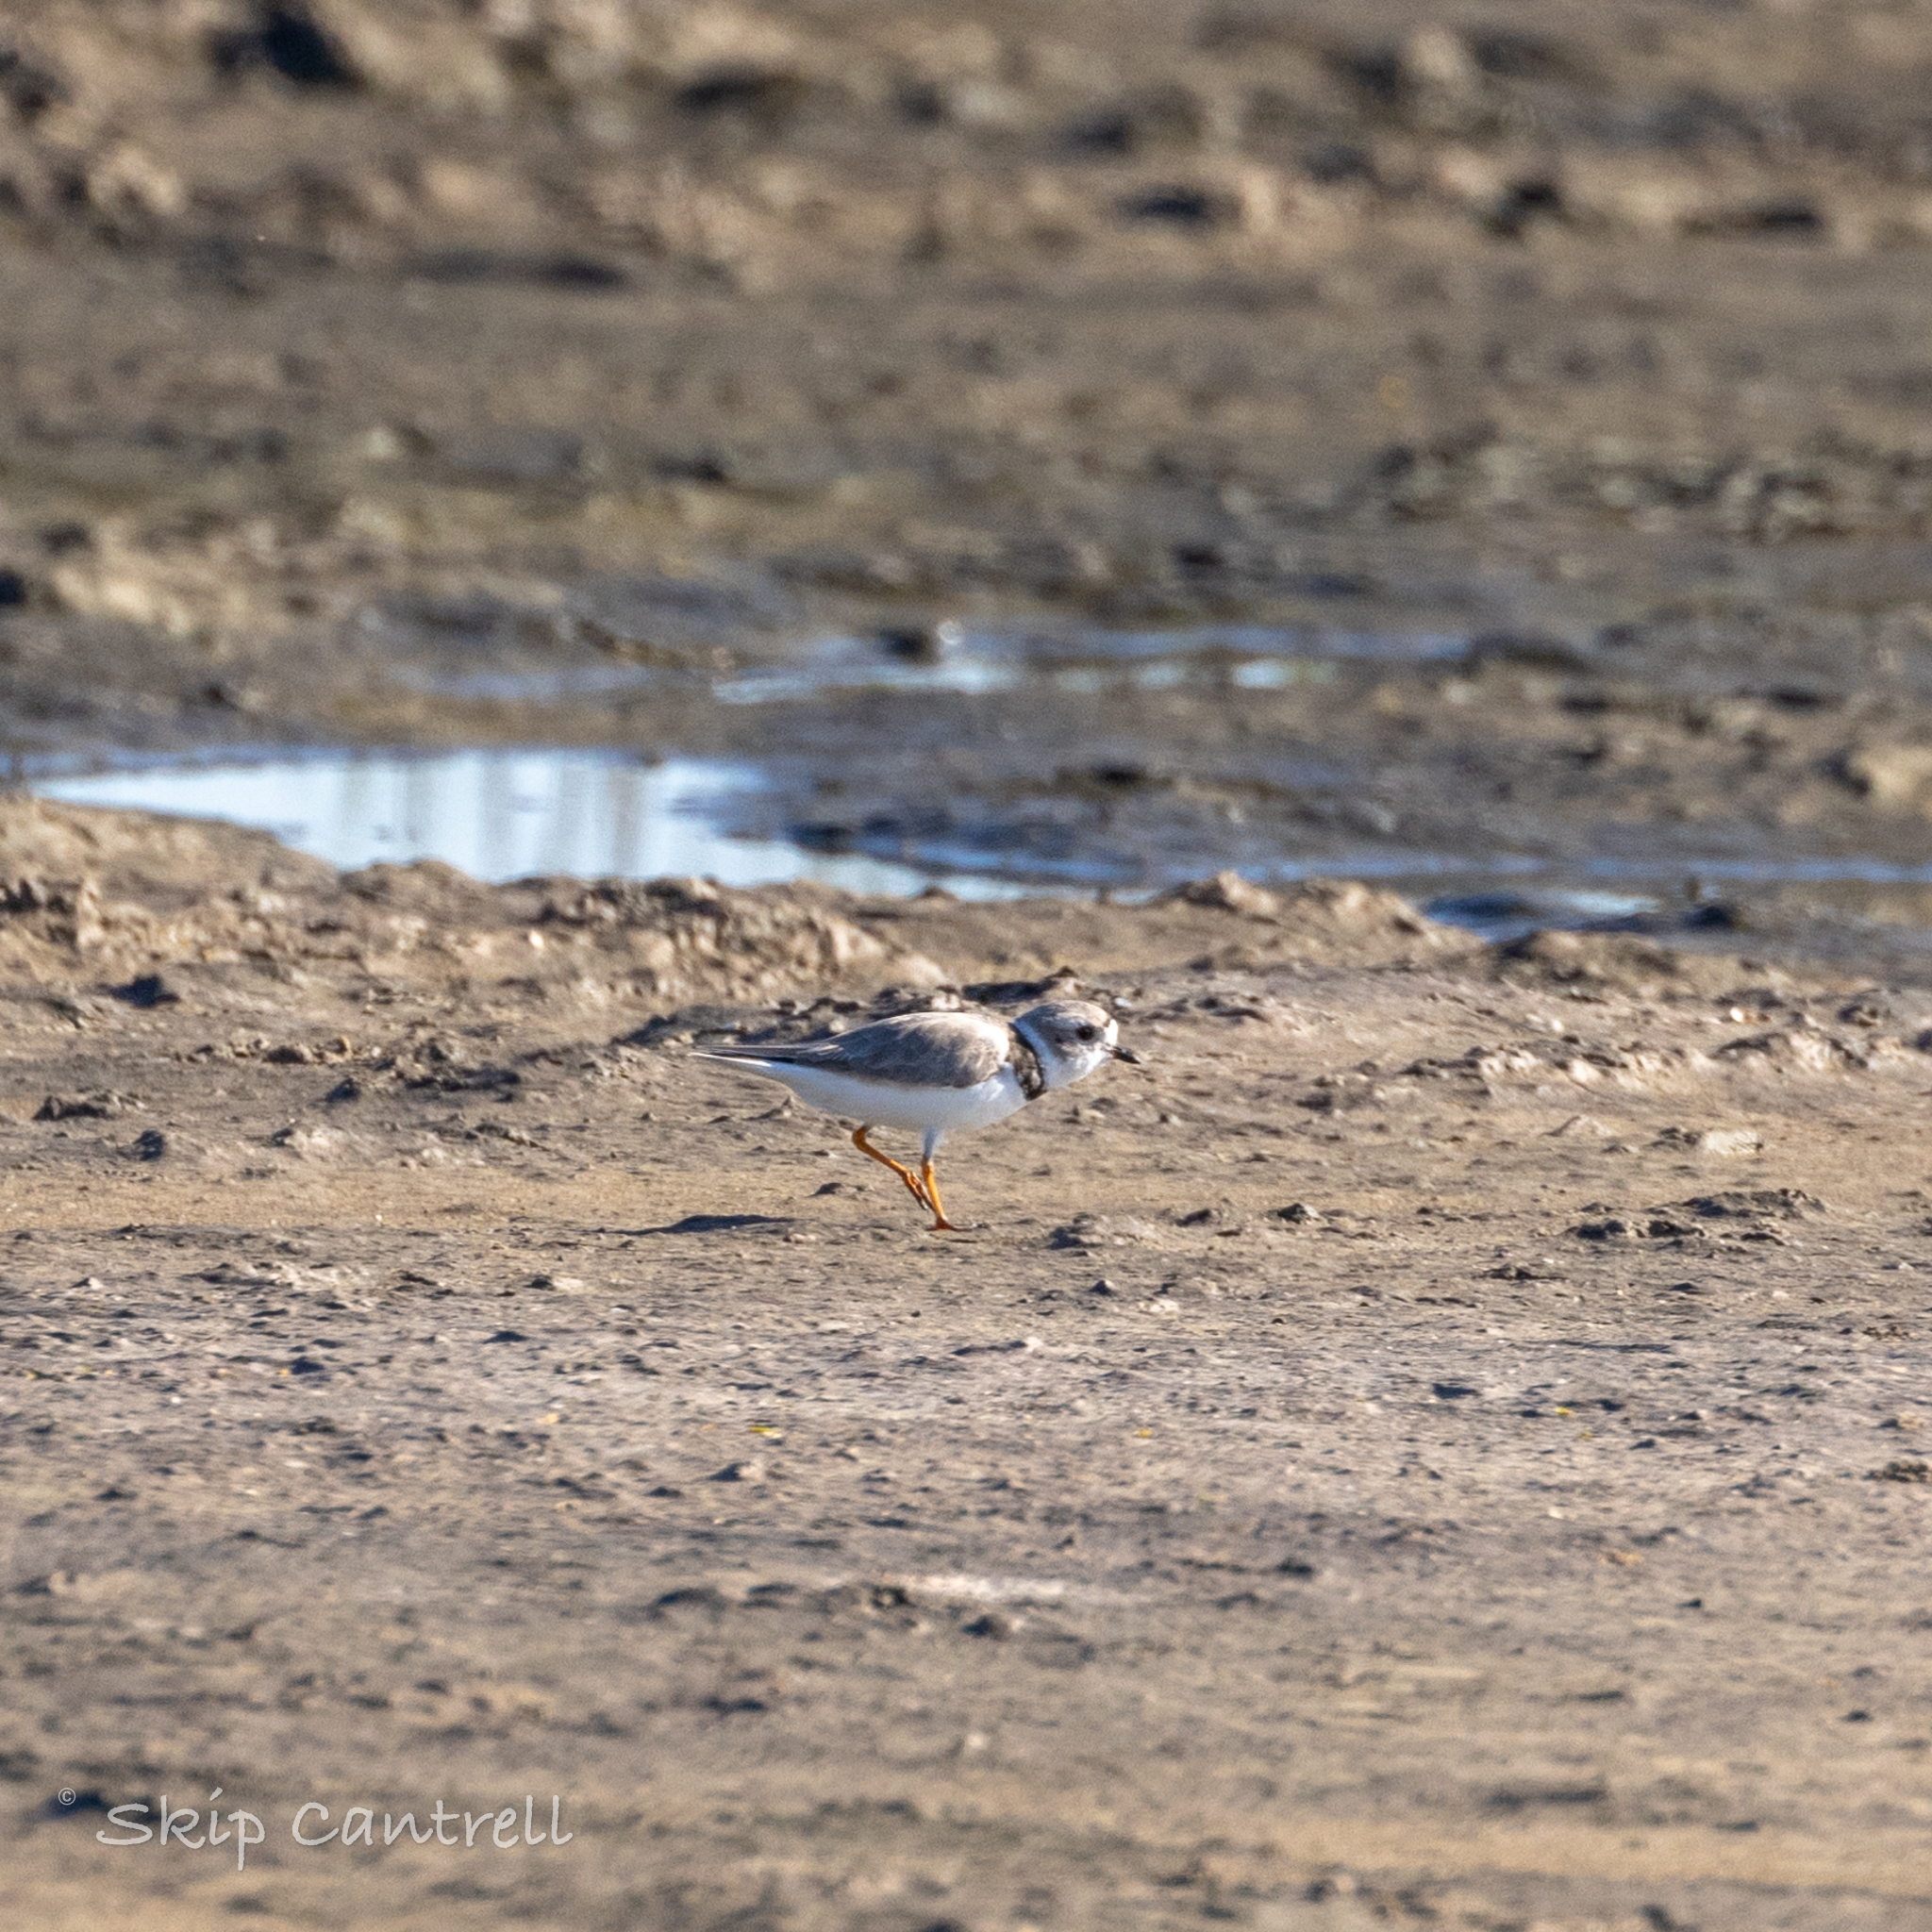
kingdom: Animalia
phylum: Chordata
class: Aves
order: Charadriiformes
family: Charadriidae
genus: Charadrius
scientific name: Charadrius melodus
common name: Piping plover
